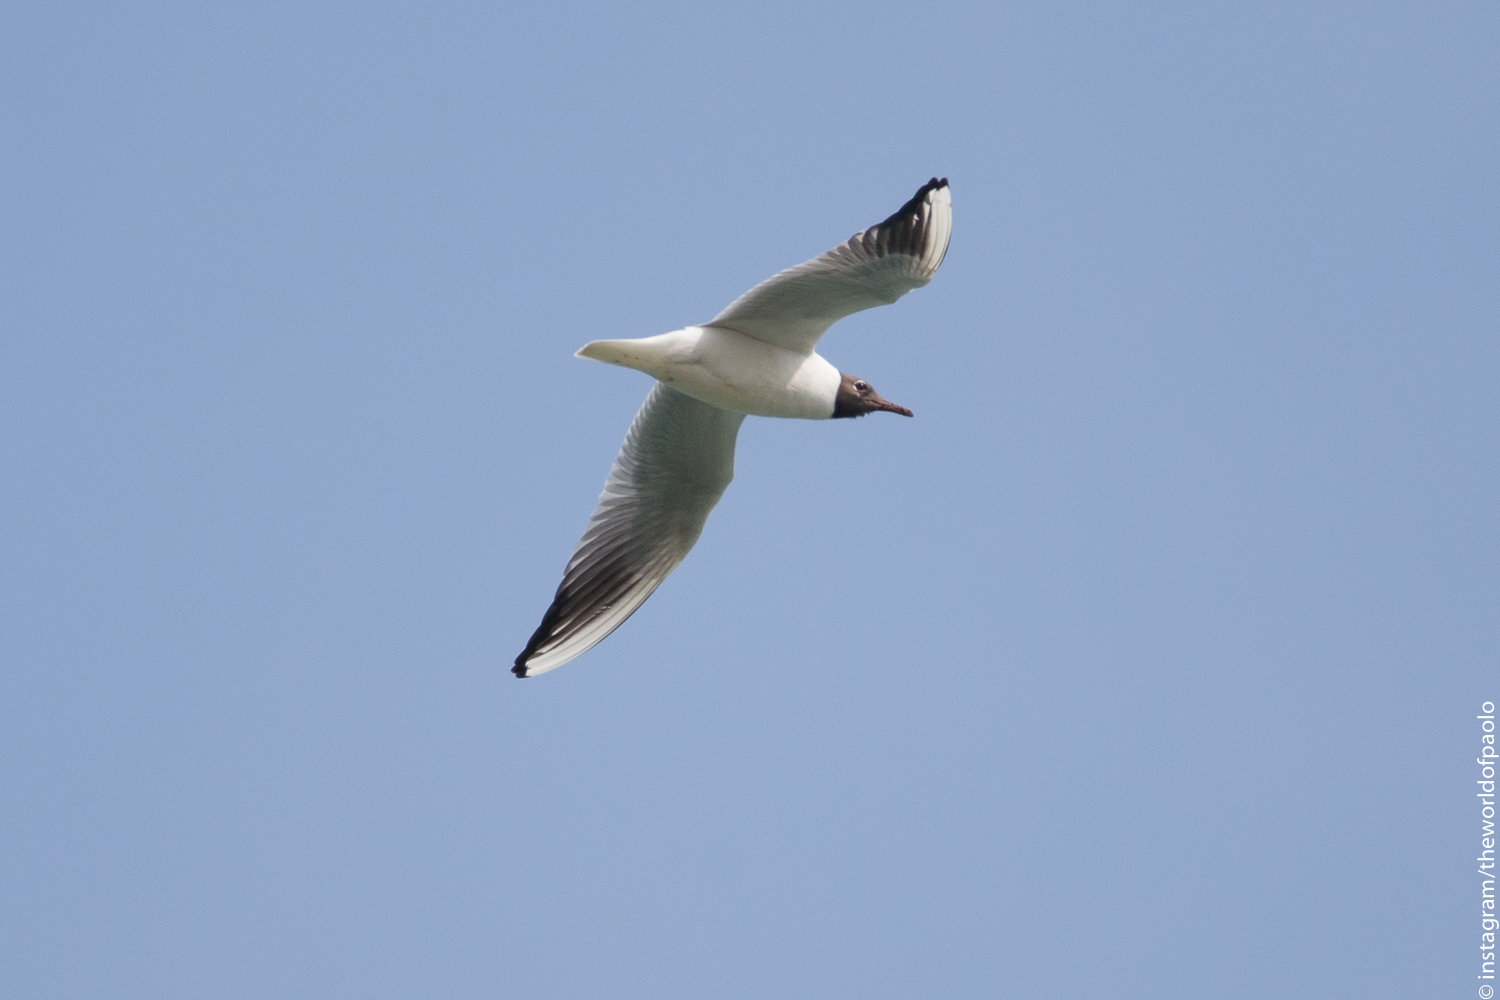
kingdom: Animalia
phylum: Chordata
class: Aves
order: Charadriiformes
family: Laridae
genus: Chroicocephalus
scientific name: Chroicocephalus ridibundus
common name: Black-headed gull
